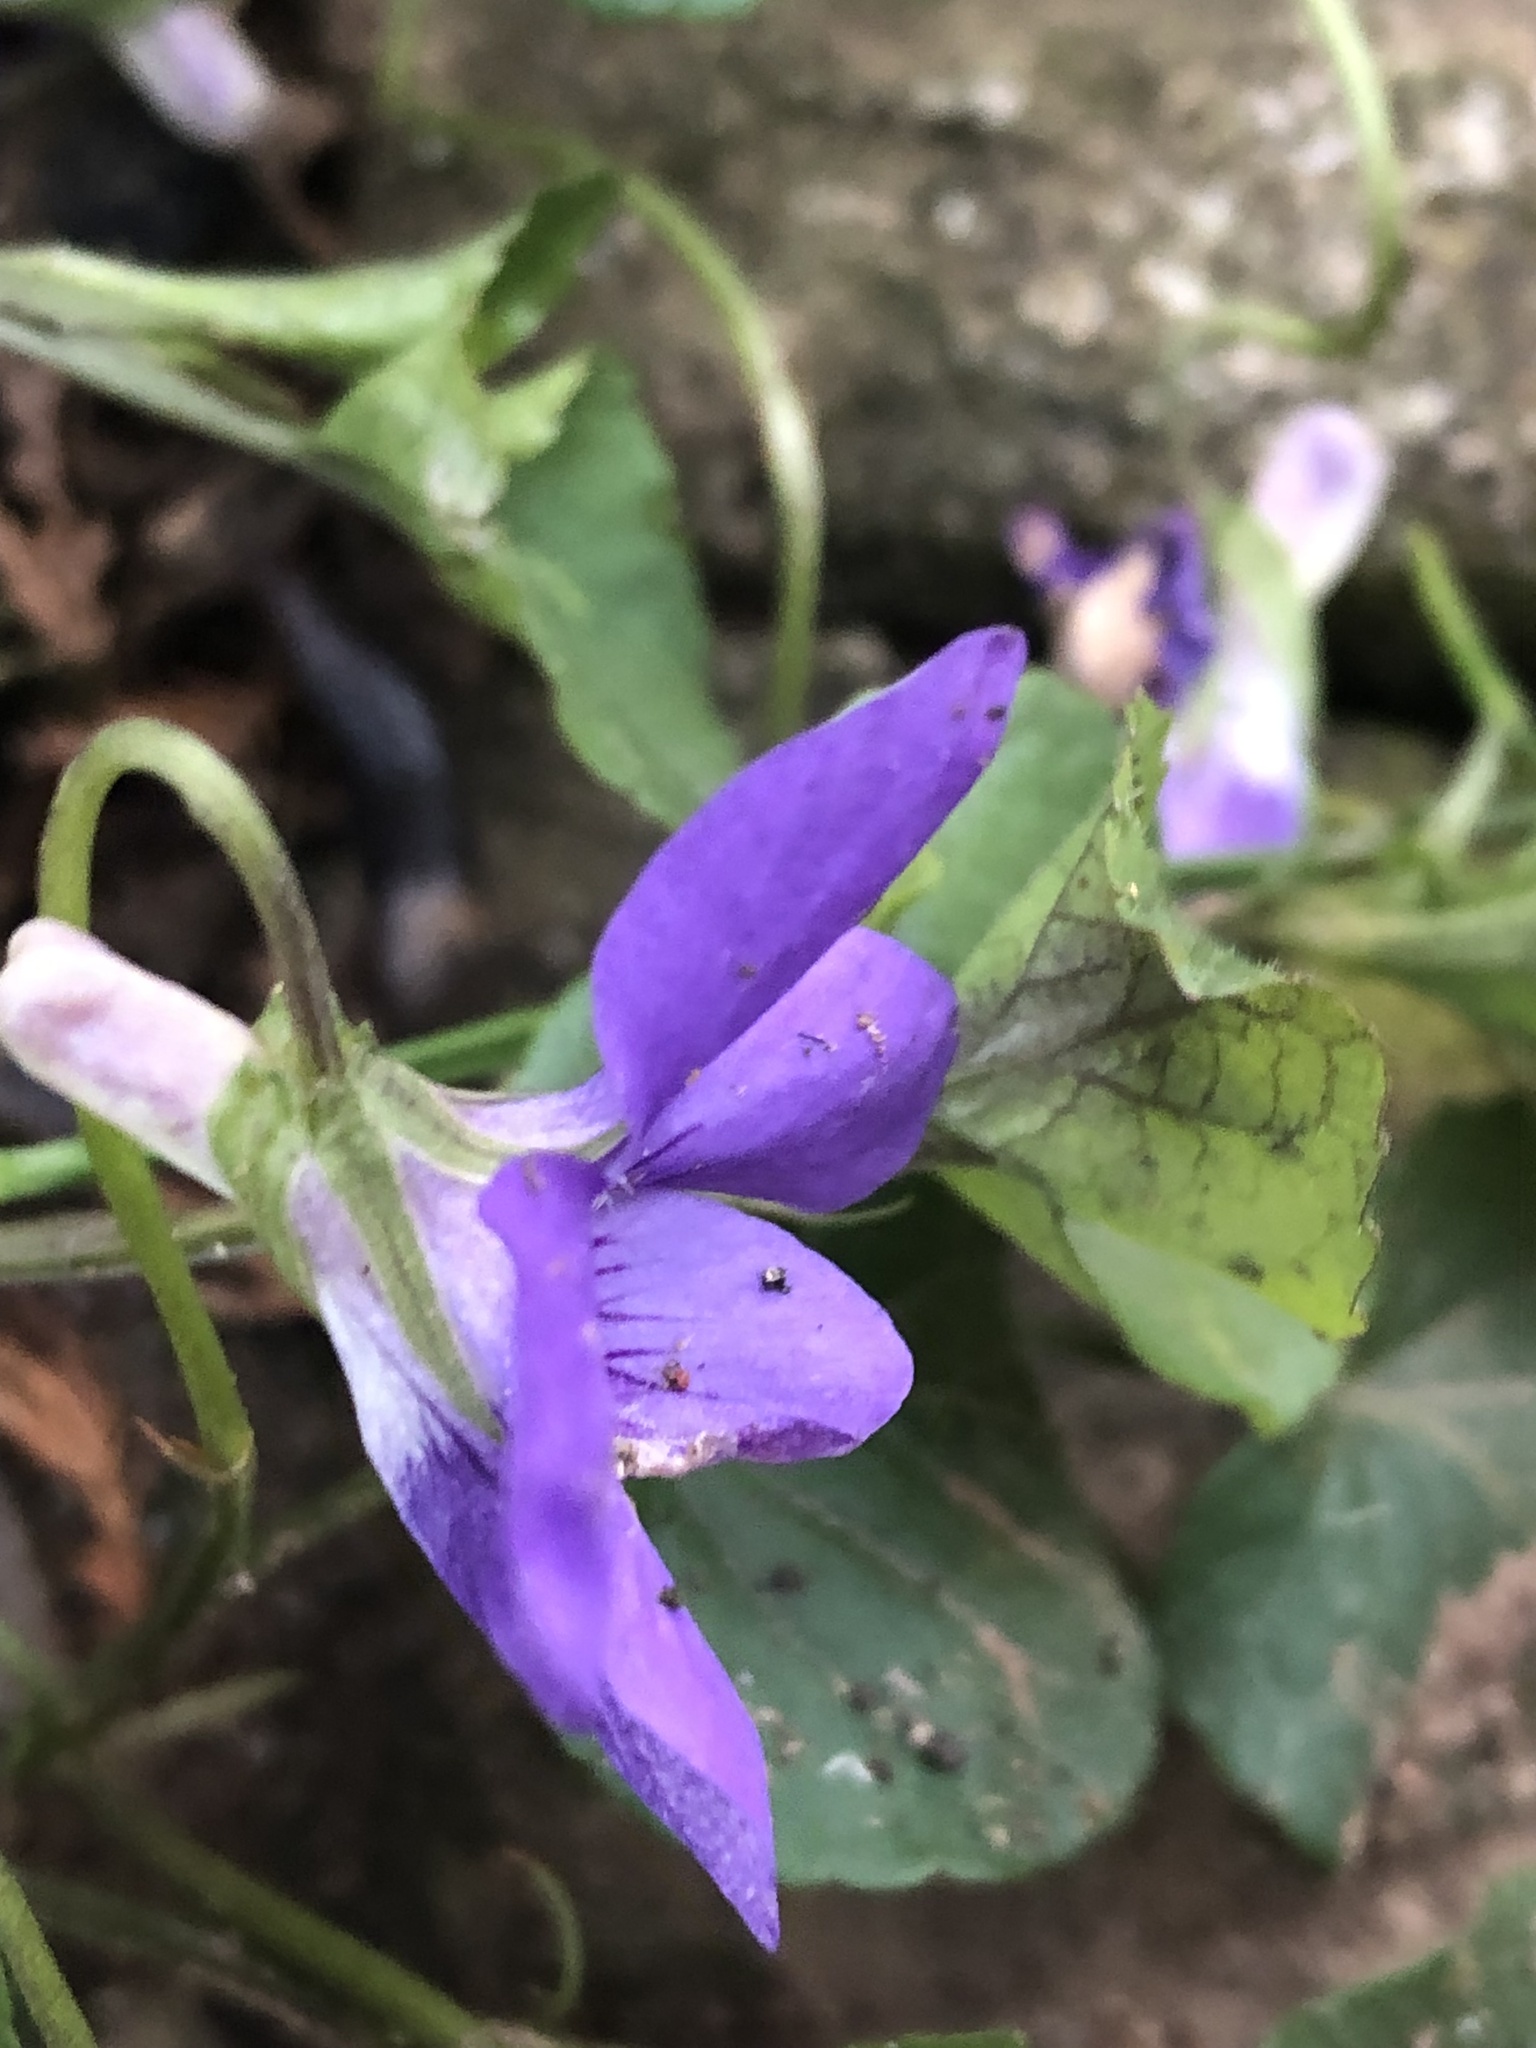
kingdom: Plantae
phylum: Tracheophyta
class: Magnoliopsida
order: Malpighiales
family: Violaceae
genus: Viola
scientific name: Viola riviniana
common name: Common dog-violet
